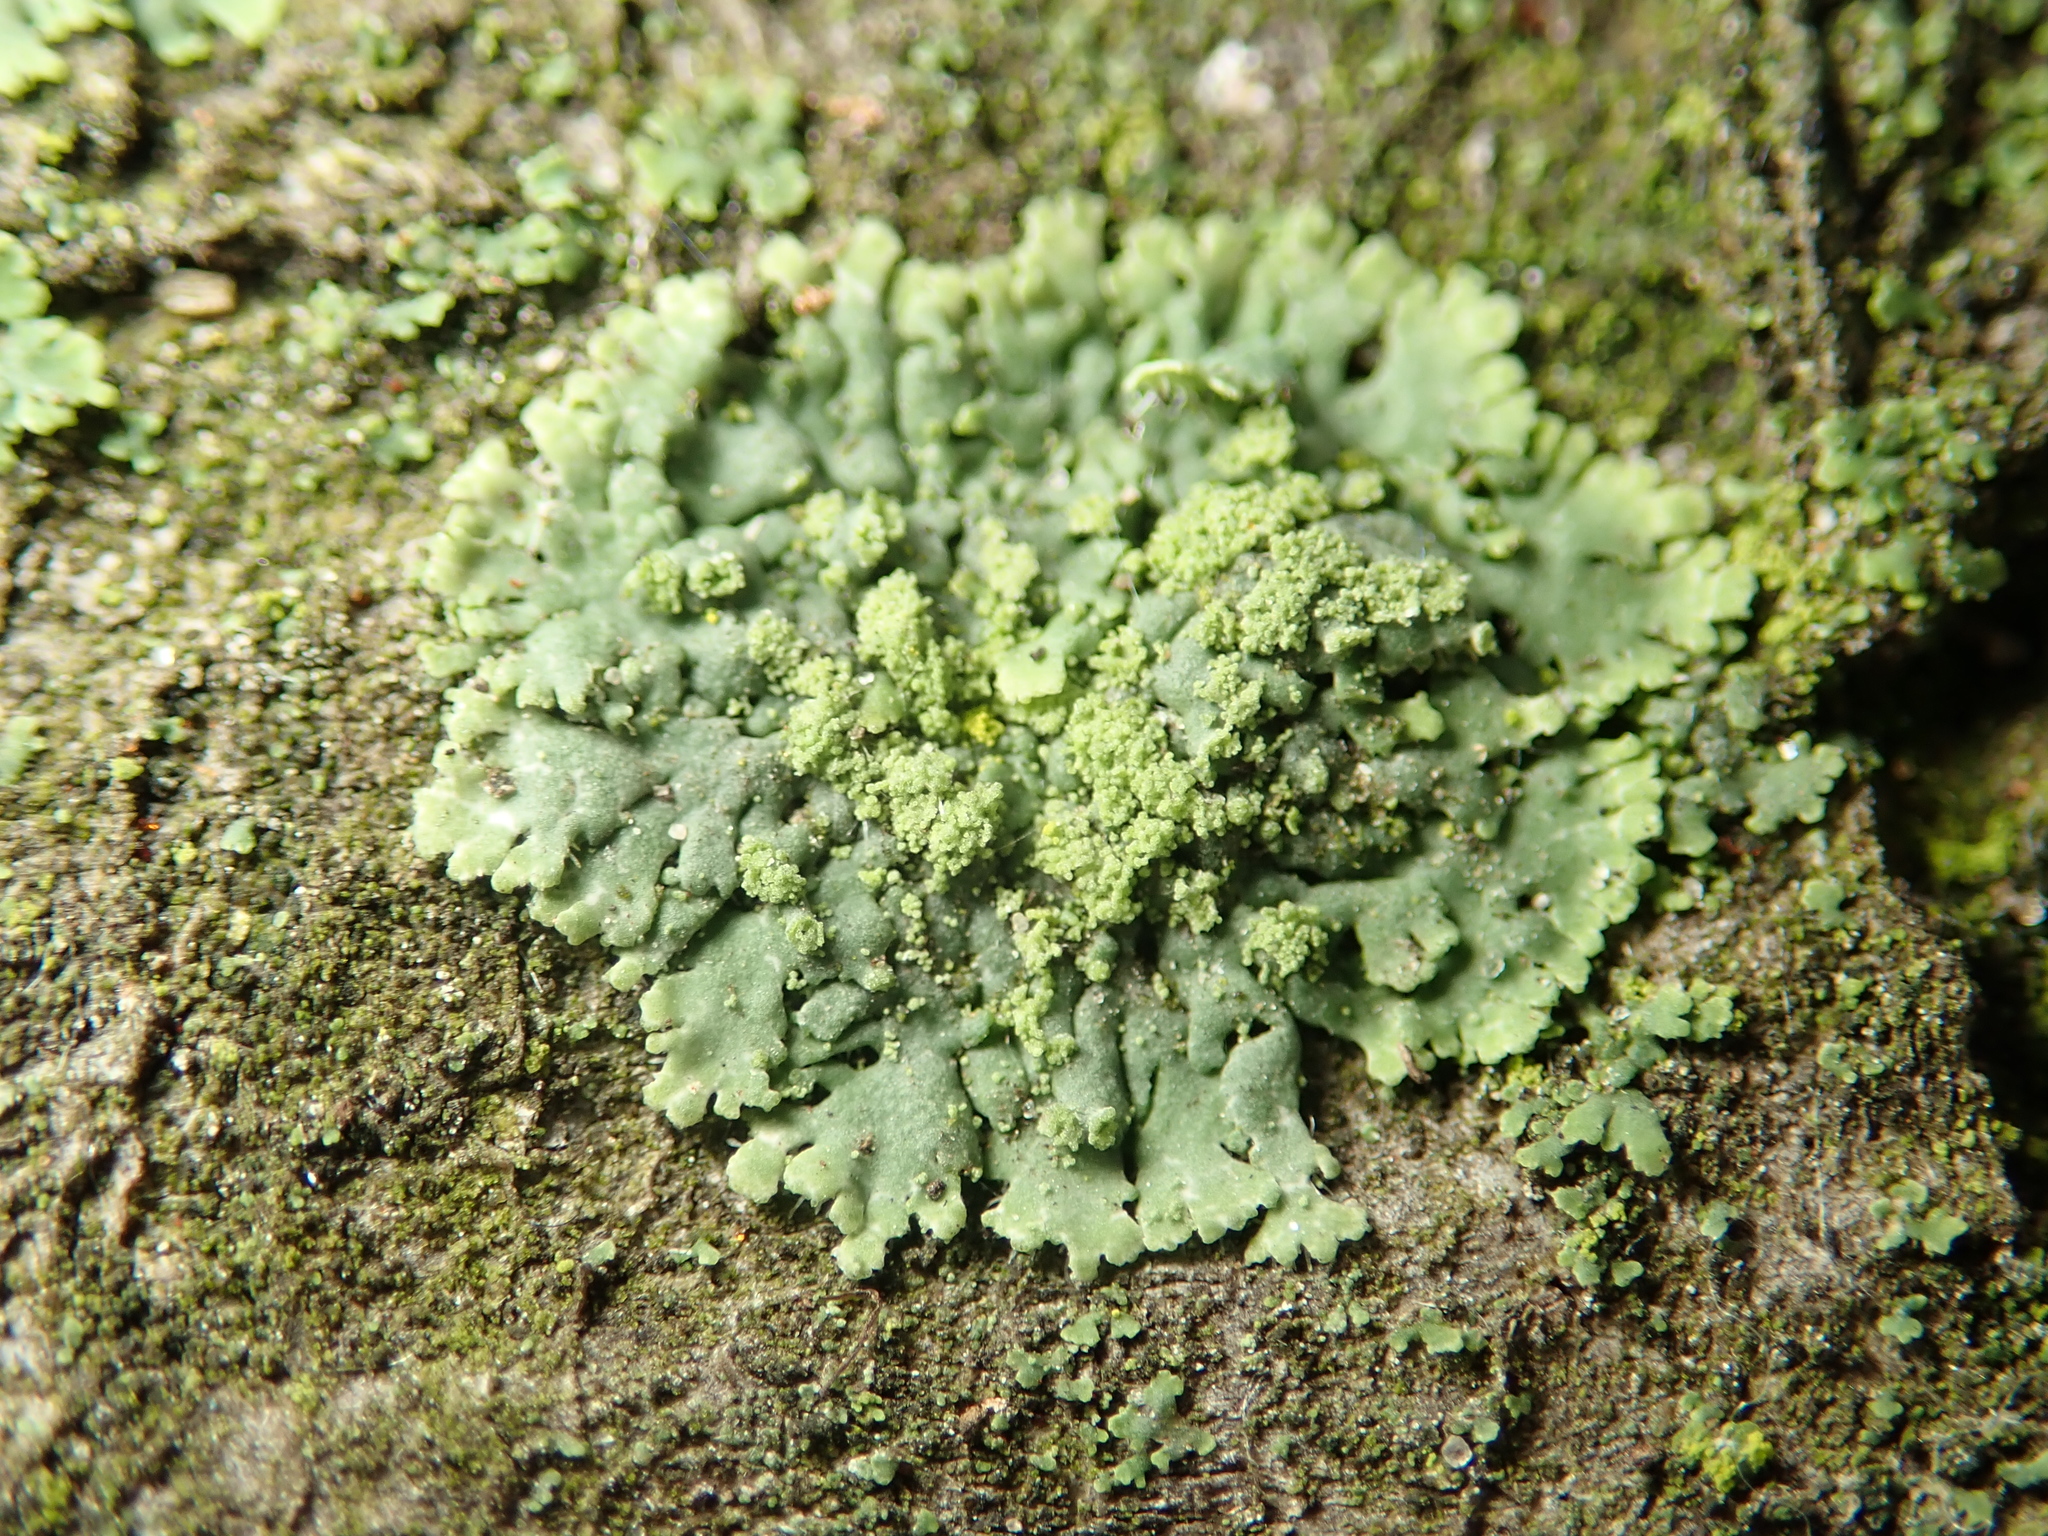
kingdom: Fungi
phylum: Ascomycota
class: Lecanoromycetes
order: Caliciales
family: Physciaceae
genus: Phaeophyscia
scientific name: Phaeophyscia orbicularis
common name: Mealy shadow lichen
